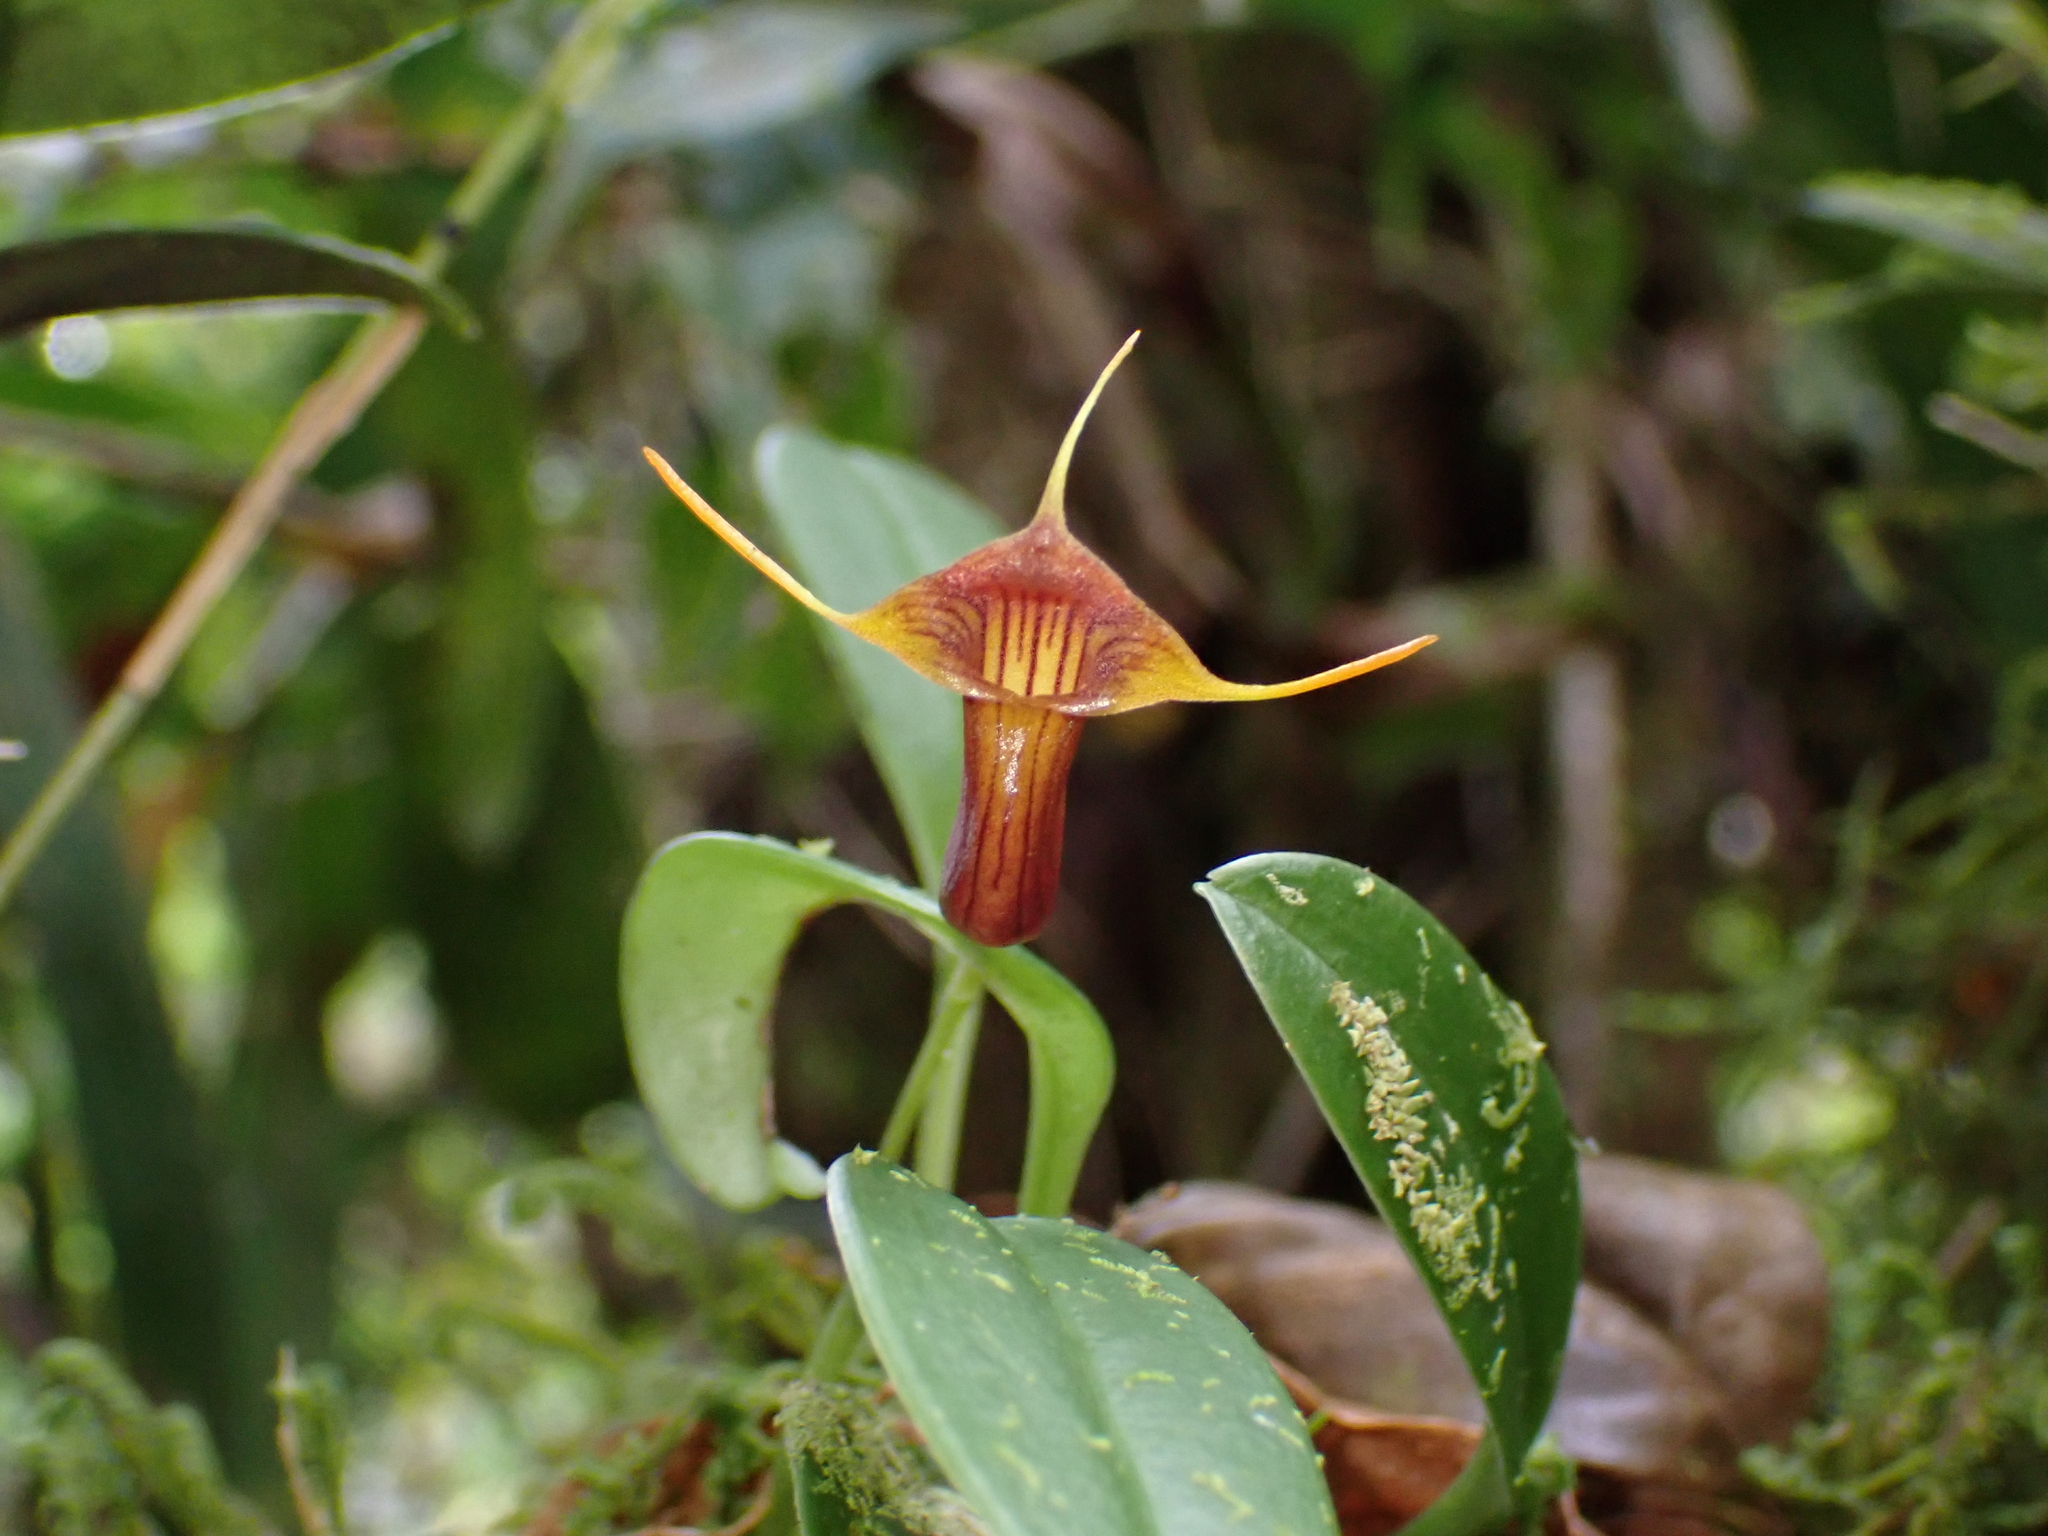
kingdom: Plantae
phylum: Tracheophyta
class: Liliopsida
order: Asparagales
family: Orchidaceae
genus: Masdevallia
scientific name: Masdevallia ventricularia
